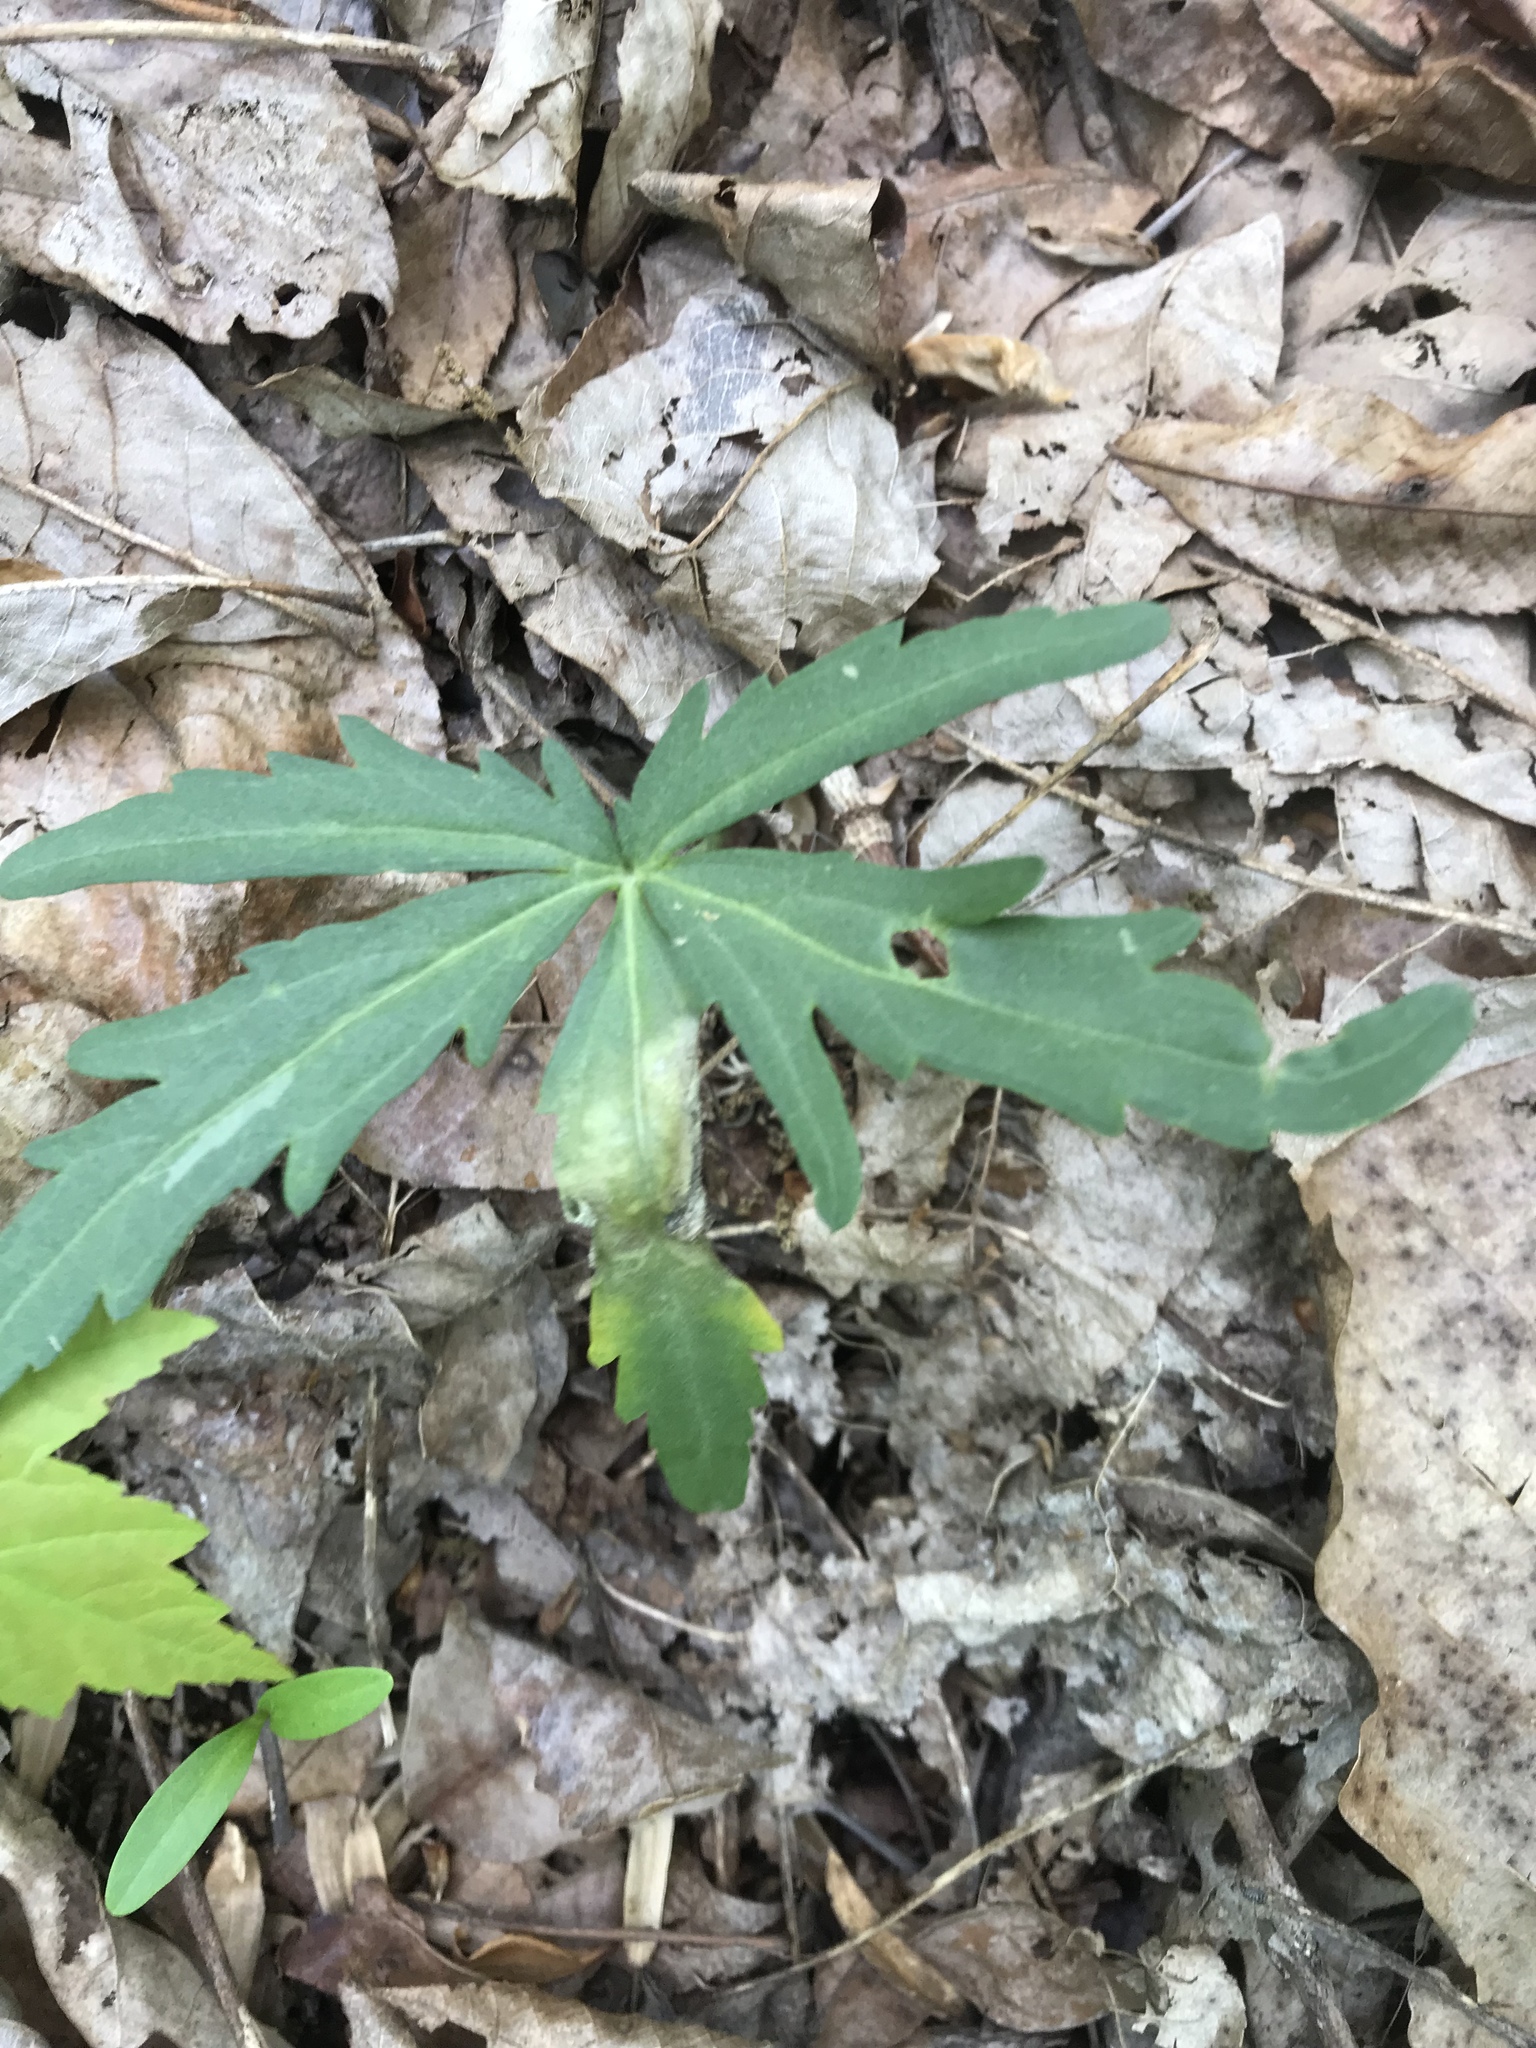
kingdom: Plantae
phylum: Tracheophyta
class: Magnoliopsida
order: Brassicales
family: Brassicaceae
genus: Cardamine
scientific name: Cardamine concatenata
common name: Cut-leaf toothcup
